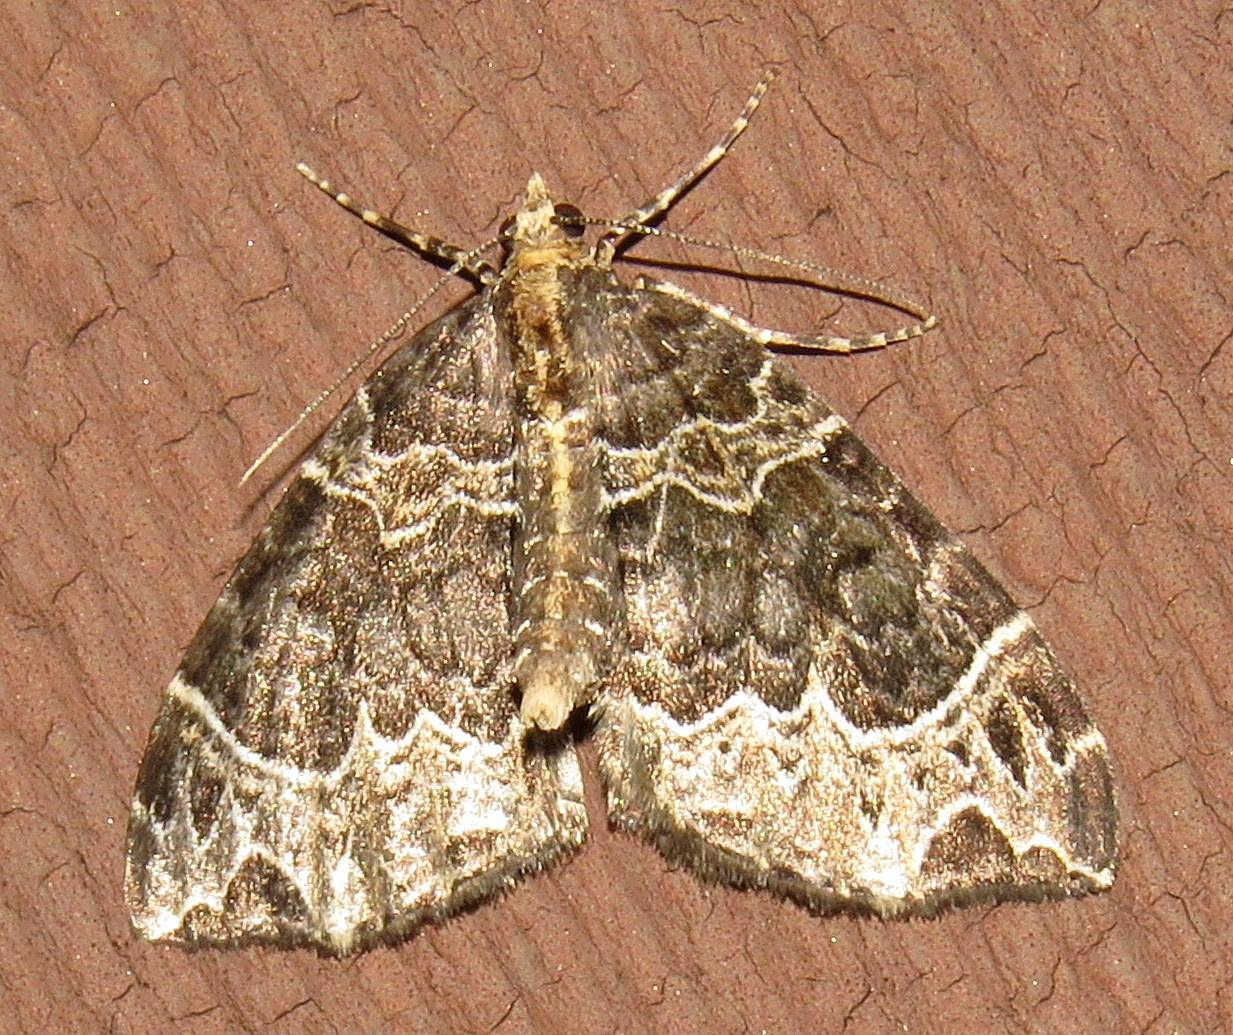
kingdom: Animalia
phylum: Arthropoda
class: Insecta
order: Lepidoptera
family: Geometridae
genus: Ecliptopera
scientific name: Ecliptopera silaceata
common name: Small phoenix
